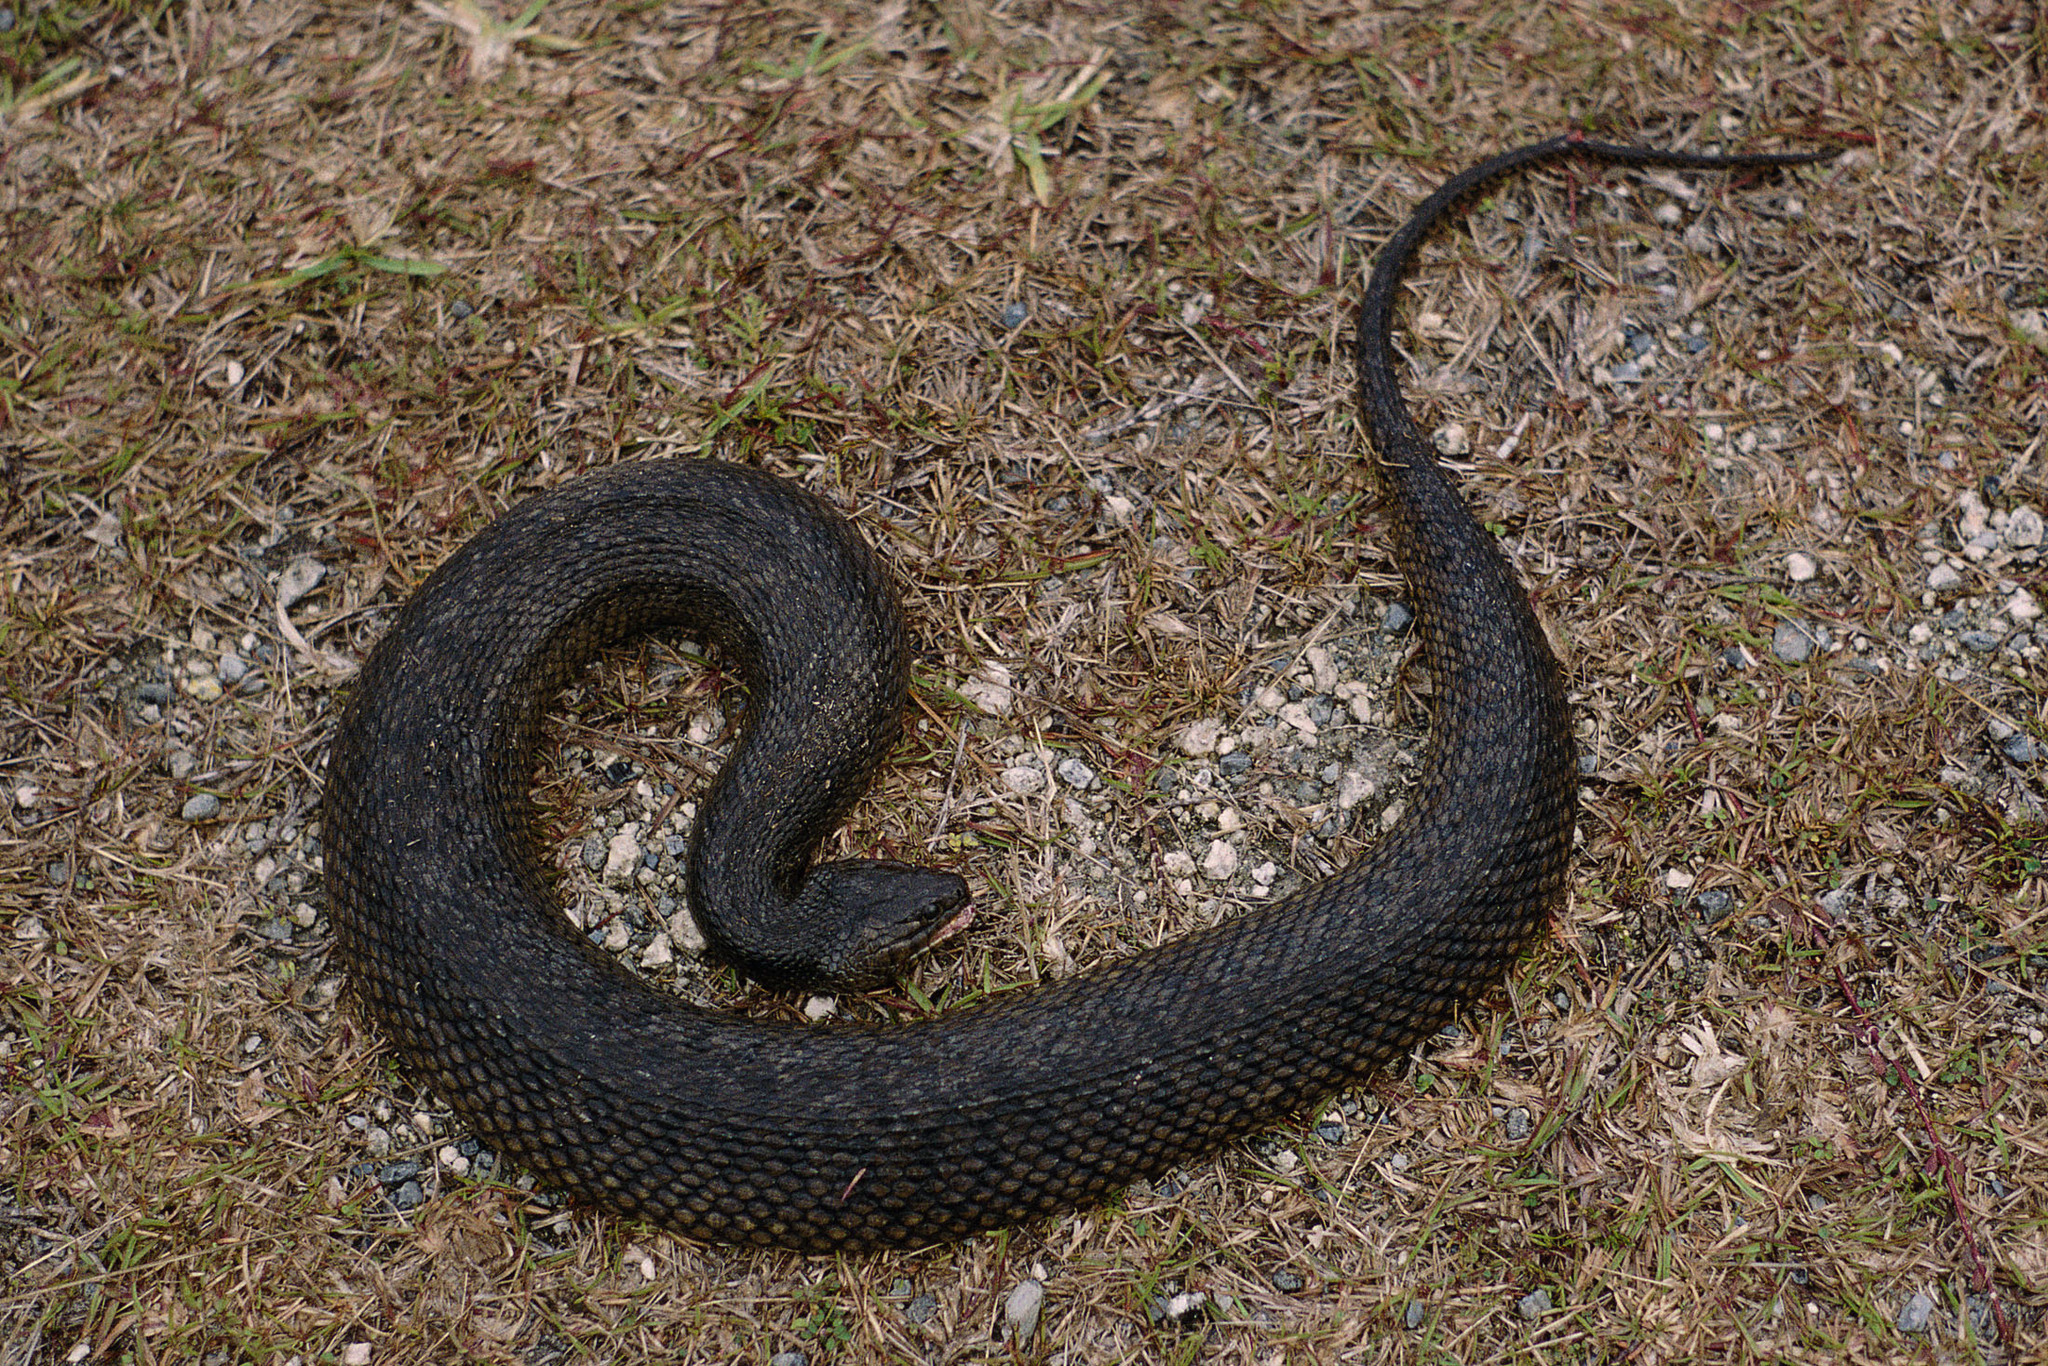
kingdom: Animalia
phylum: Chordata
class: Squamata
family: Colubridae
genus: Nerodia
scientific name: Nerodia floridana
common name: Florida green watersnake
